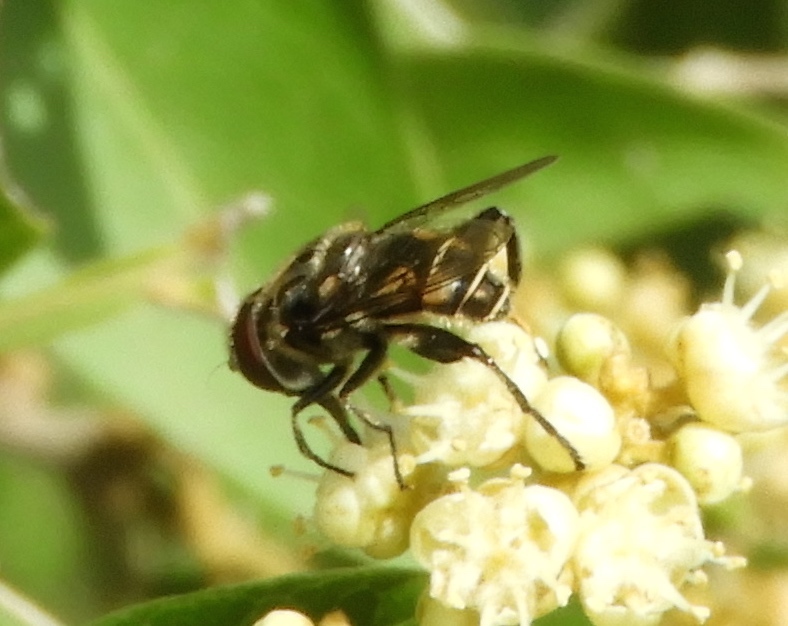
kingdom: Animalia
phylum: Arthropoda
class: Insecta
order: Diptera
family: Syrphidae
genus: Palpada
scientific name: Palpada
